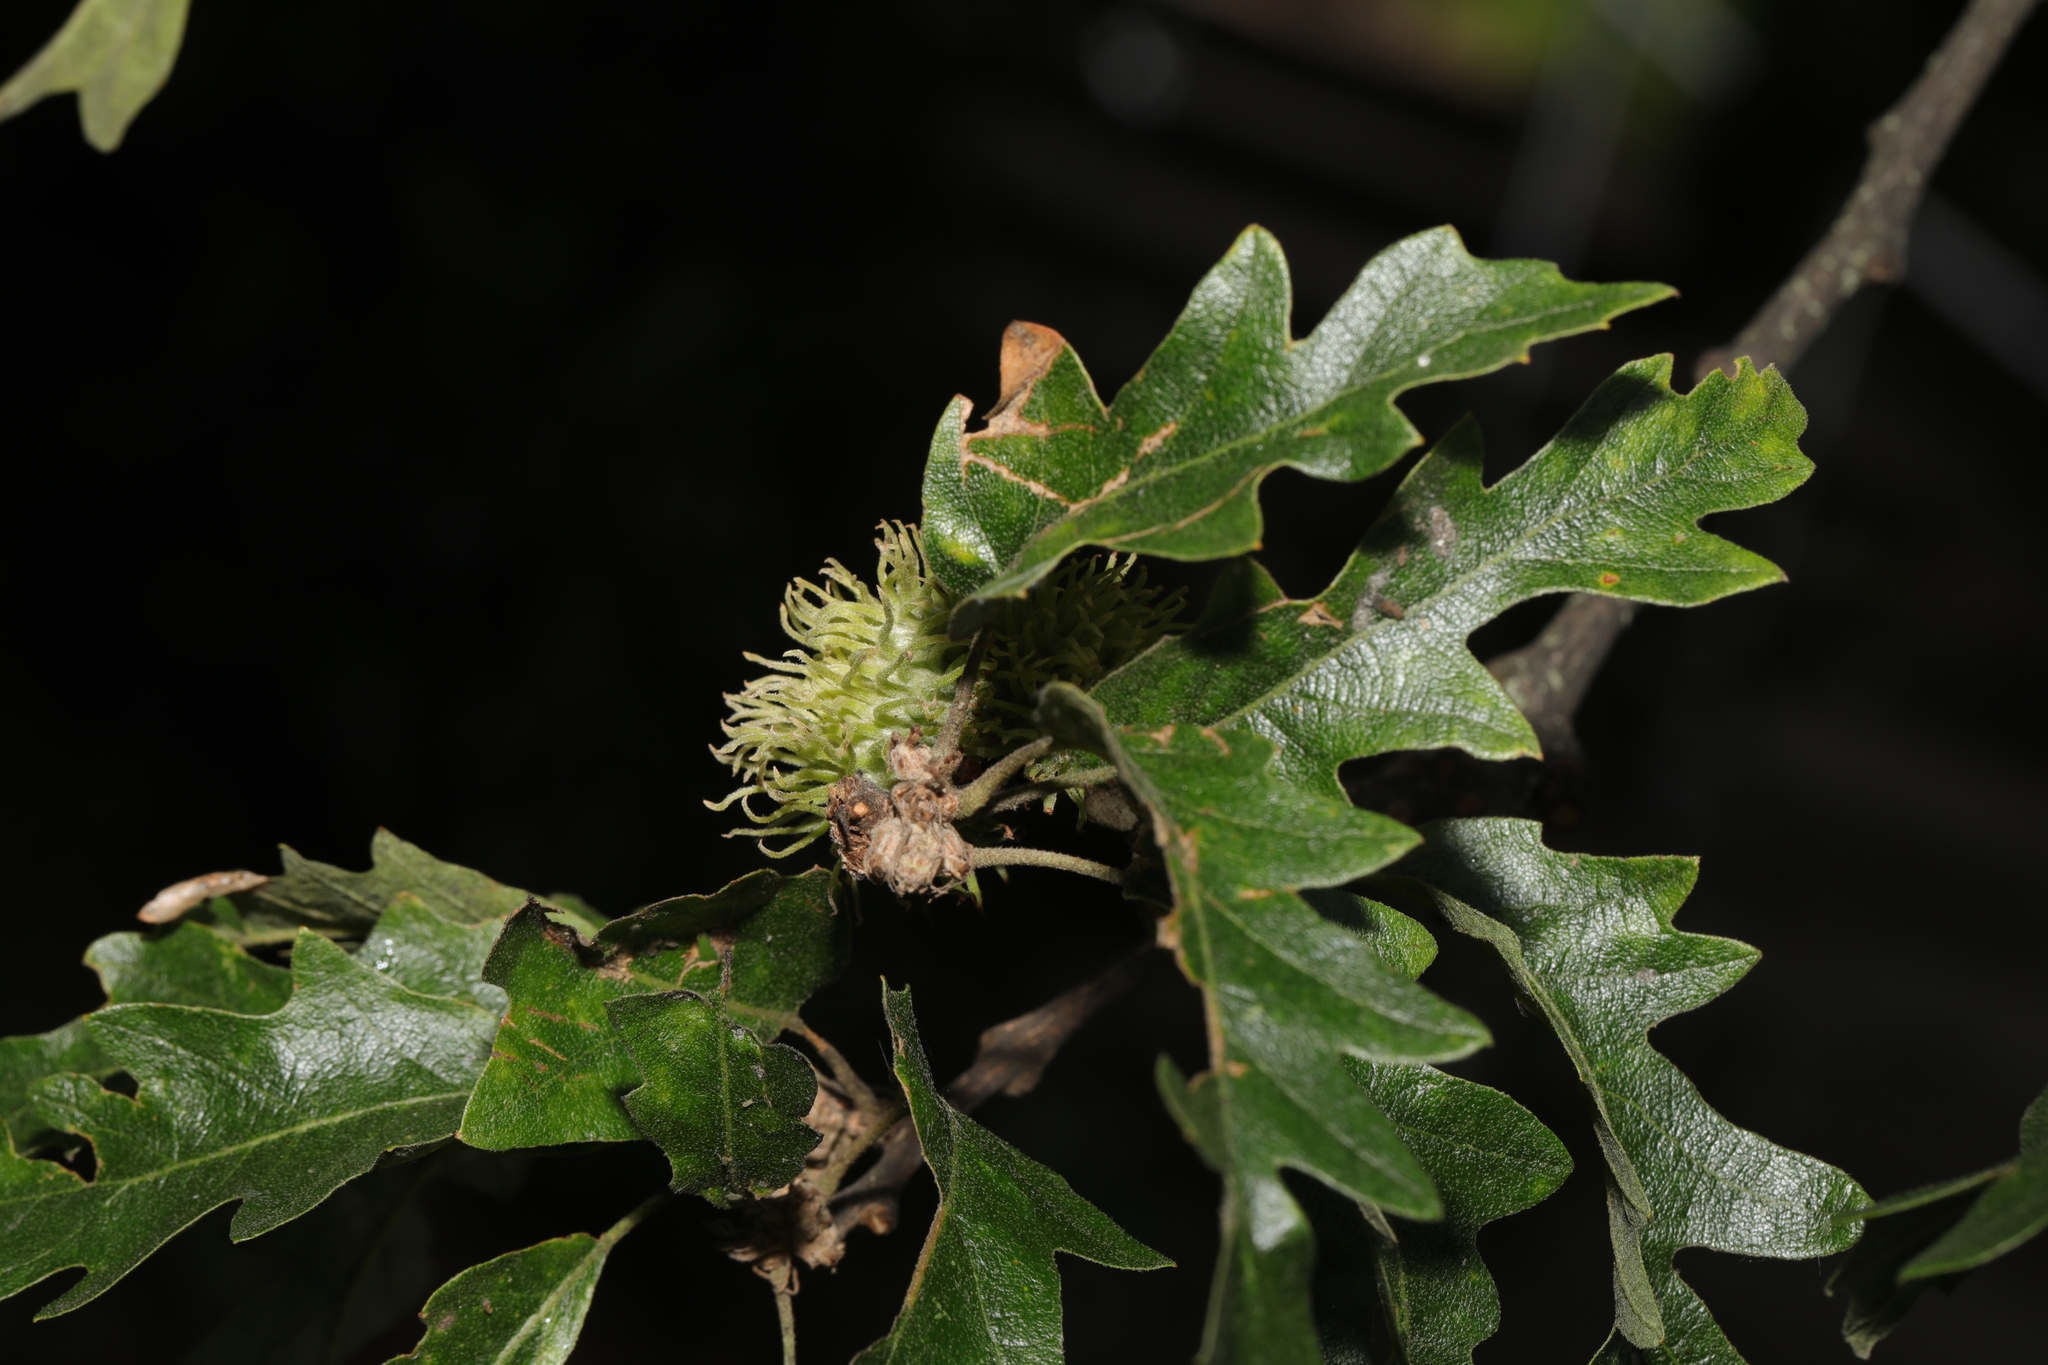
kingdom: Plantae
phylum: Tracheophyta
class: Magnoliopsida
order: Fagales
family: Fagaceae
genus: Quercus
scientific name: Quercus cerris
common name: Turkey oak
